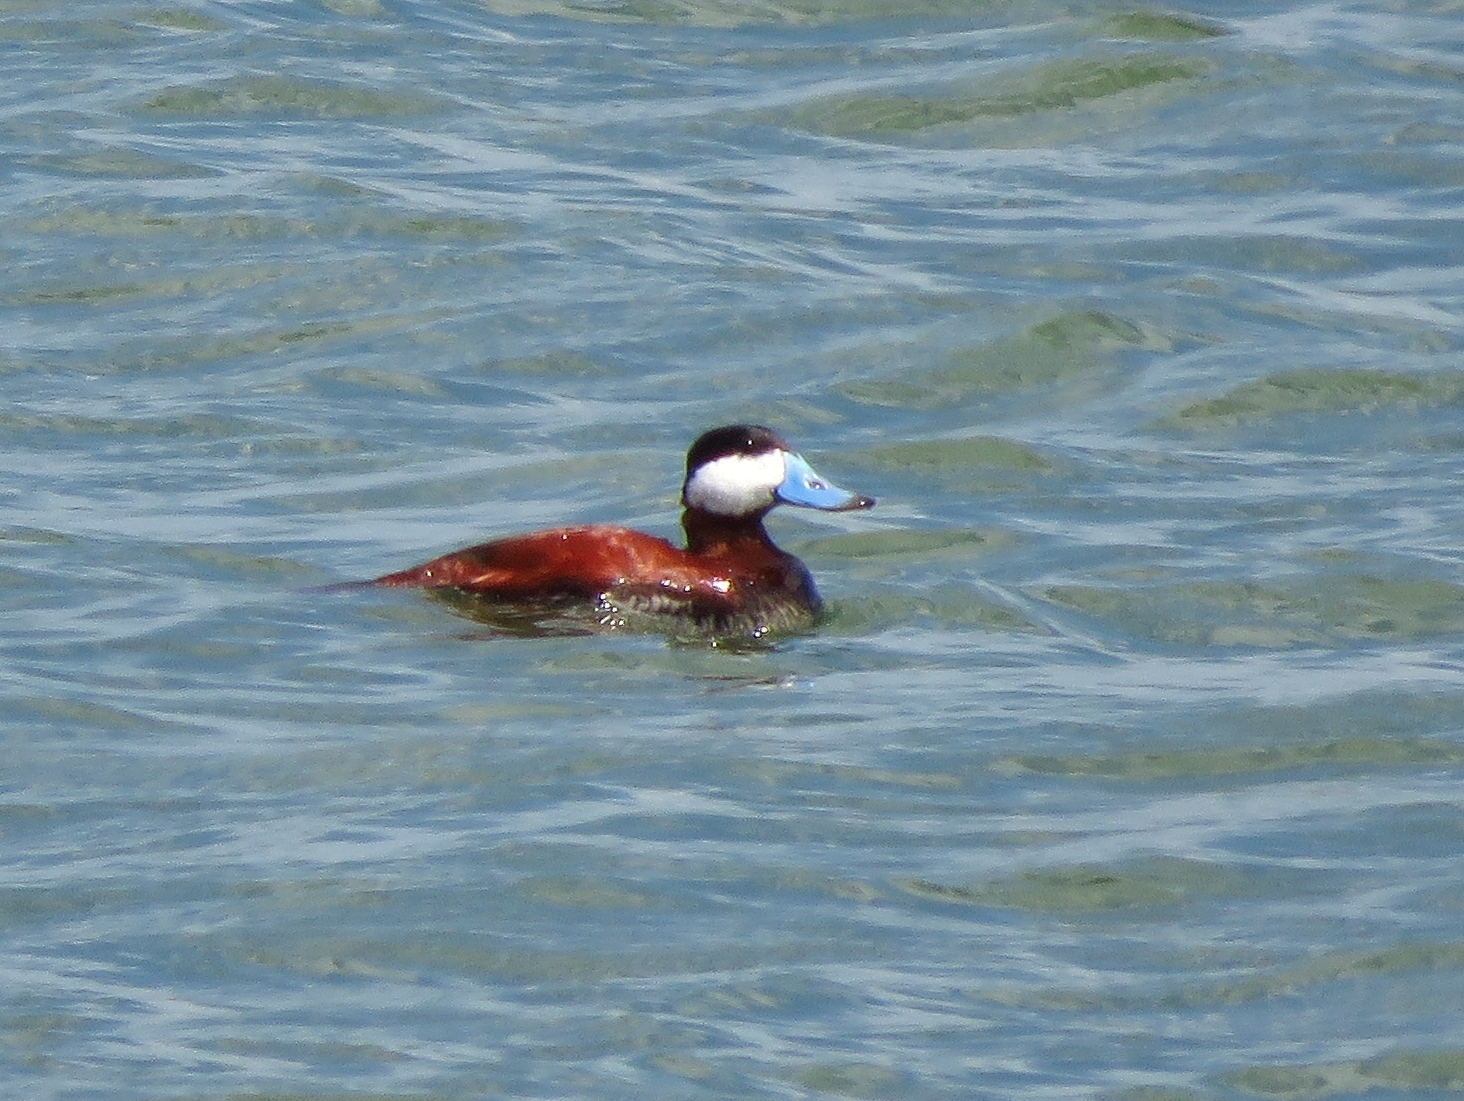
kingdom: Animalia
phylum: Chordata
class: Aves
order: Anseriformes
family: Anatidae
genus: Oxyura
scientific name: Oxyura jamaicensis
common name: Ruddy duck
